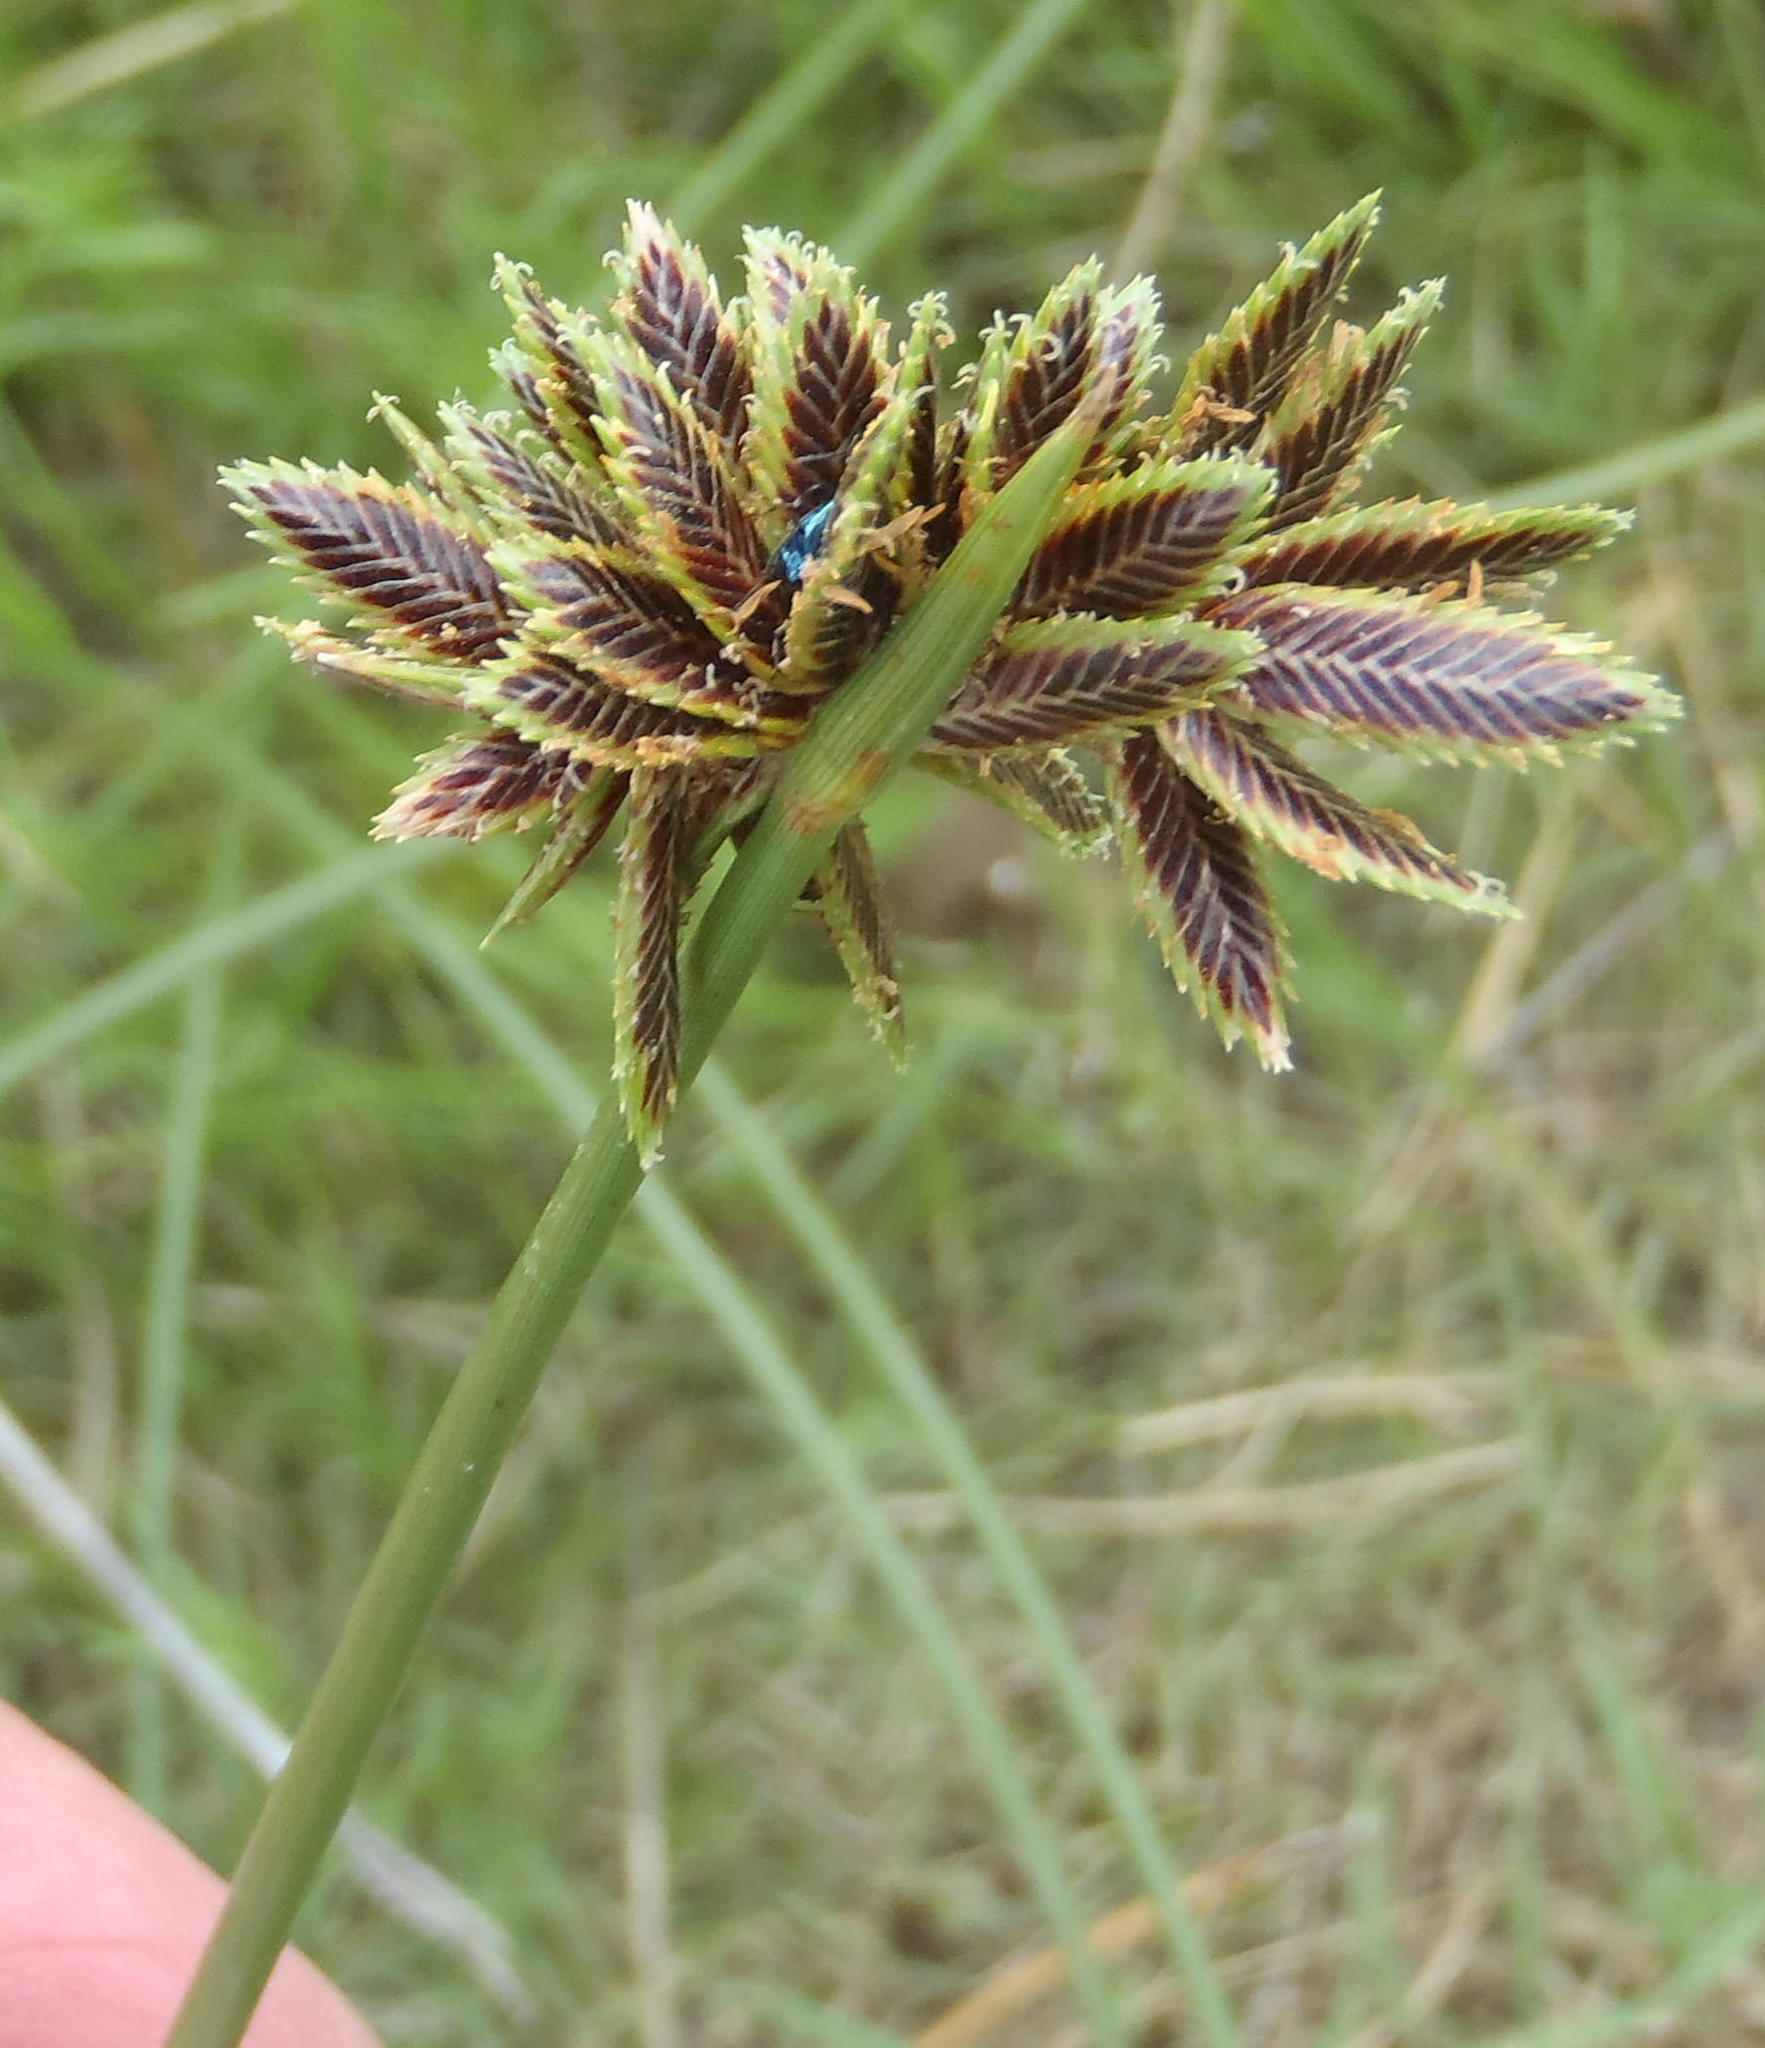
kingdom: Plantae
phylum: Tracheophyta
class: Liliopsida
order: Poales
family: Cyperaceae
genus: Cyperus
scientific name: Cyperus marginatus
